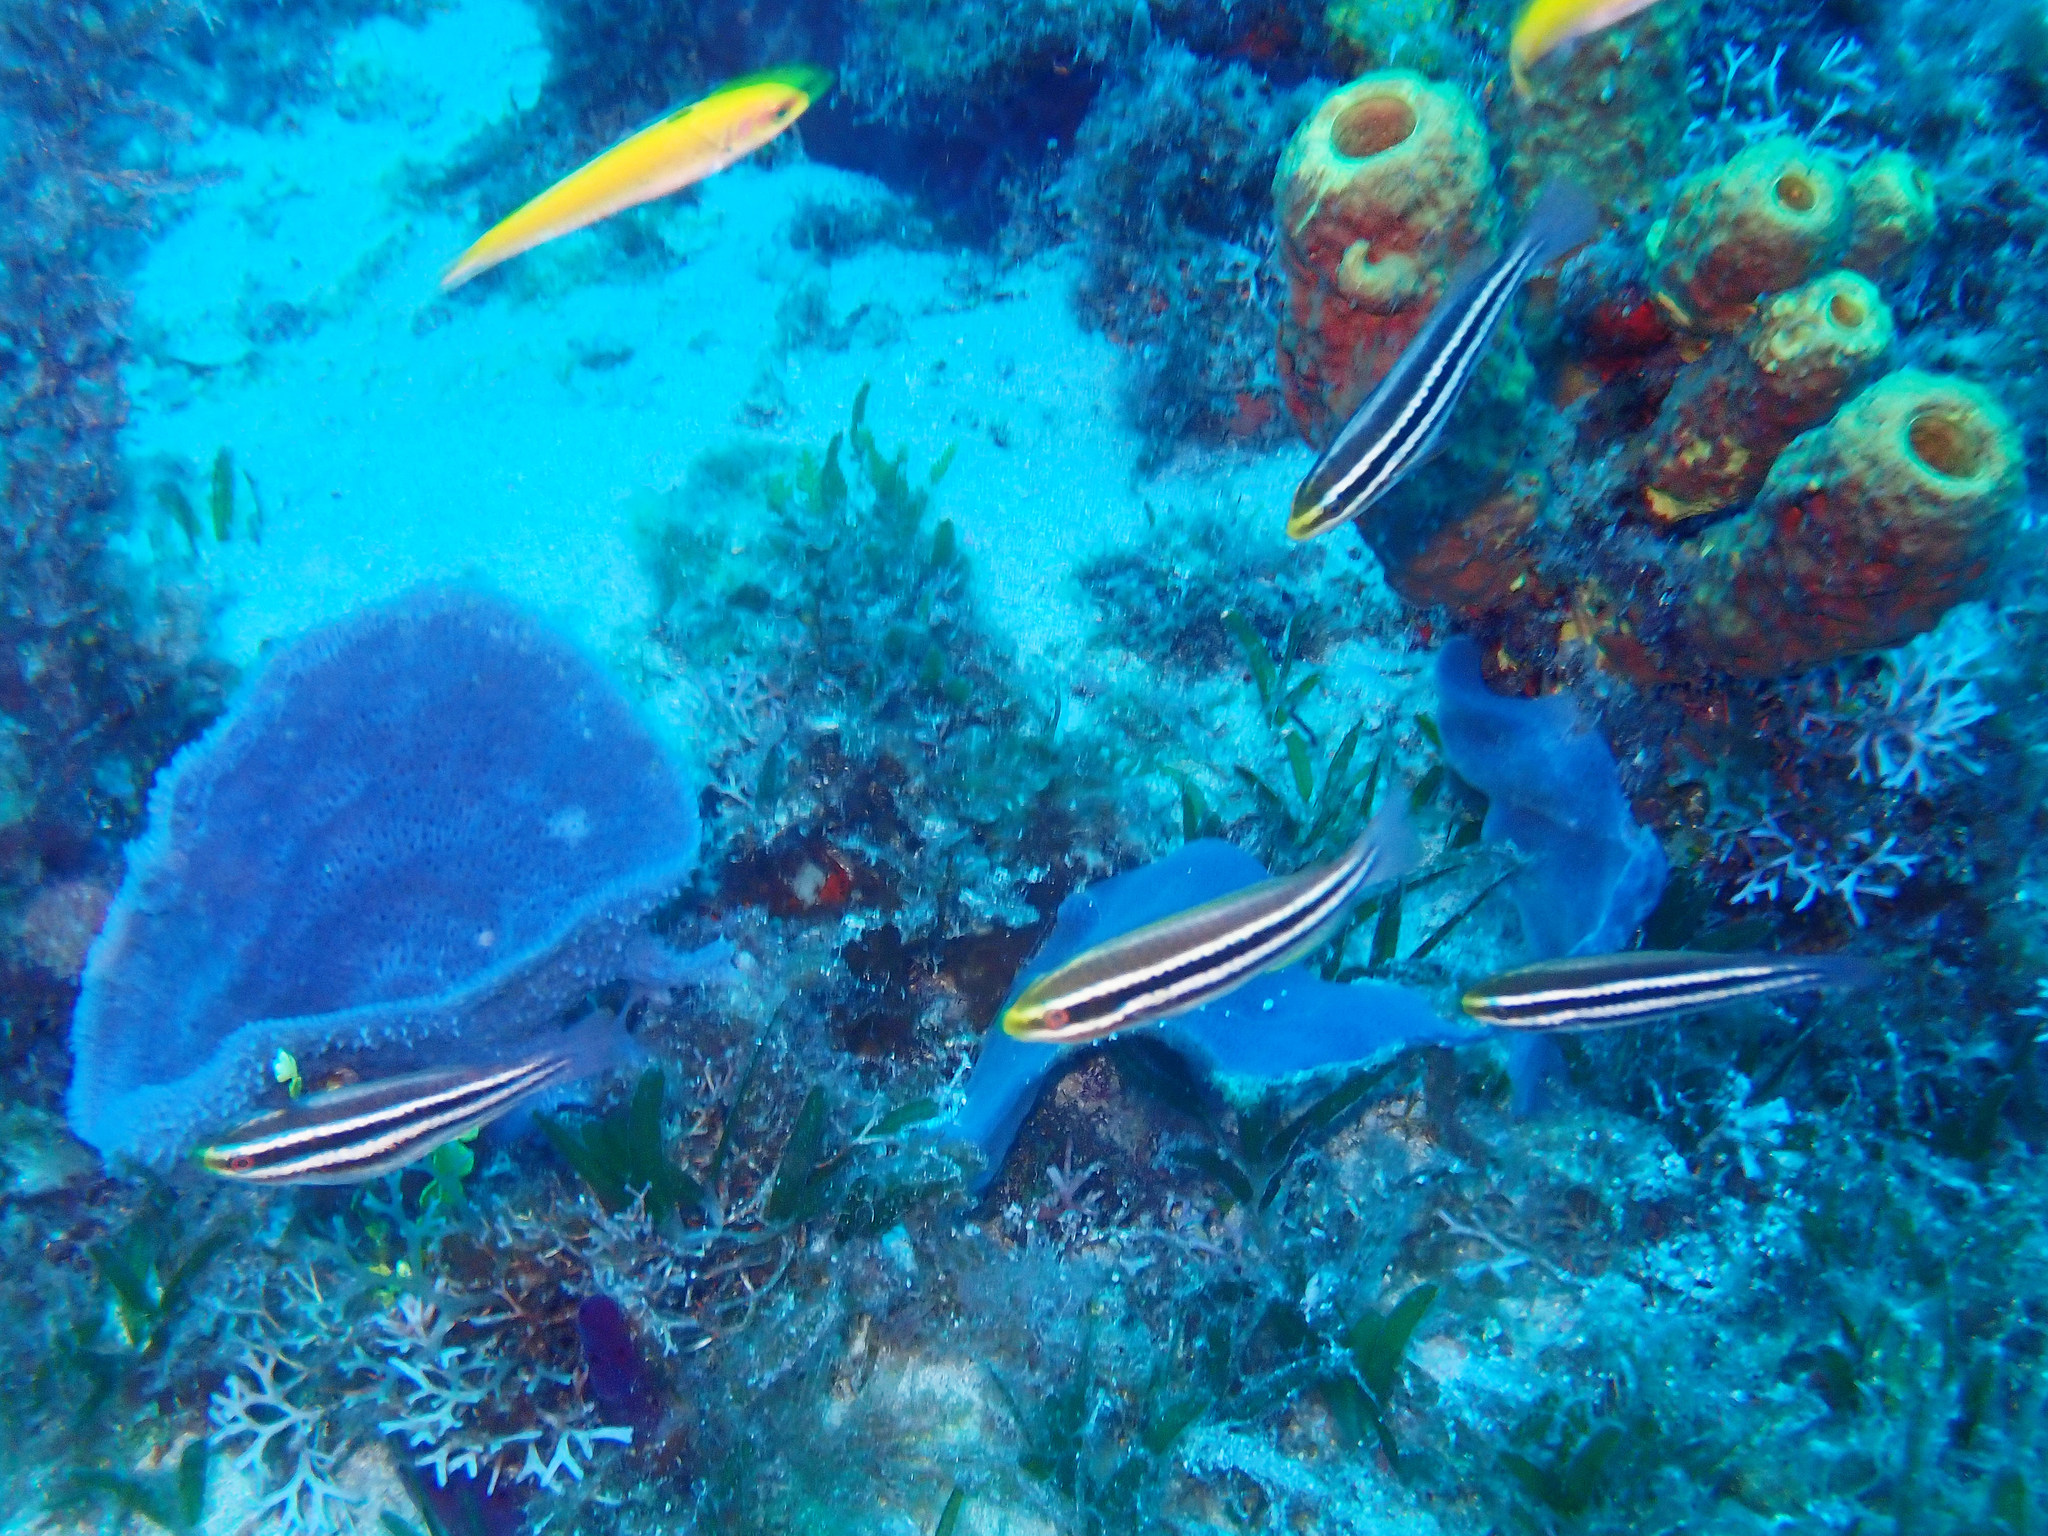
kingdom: Animalia
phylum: Chordata
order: Perciformes
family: Scaridae
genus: Scarus
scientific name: Scarus iseri
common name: Striped parrotfish
